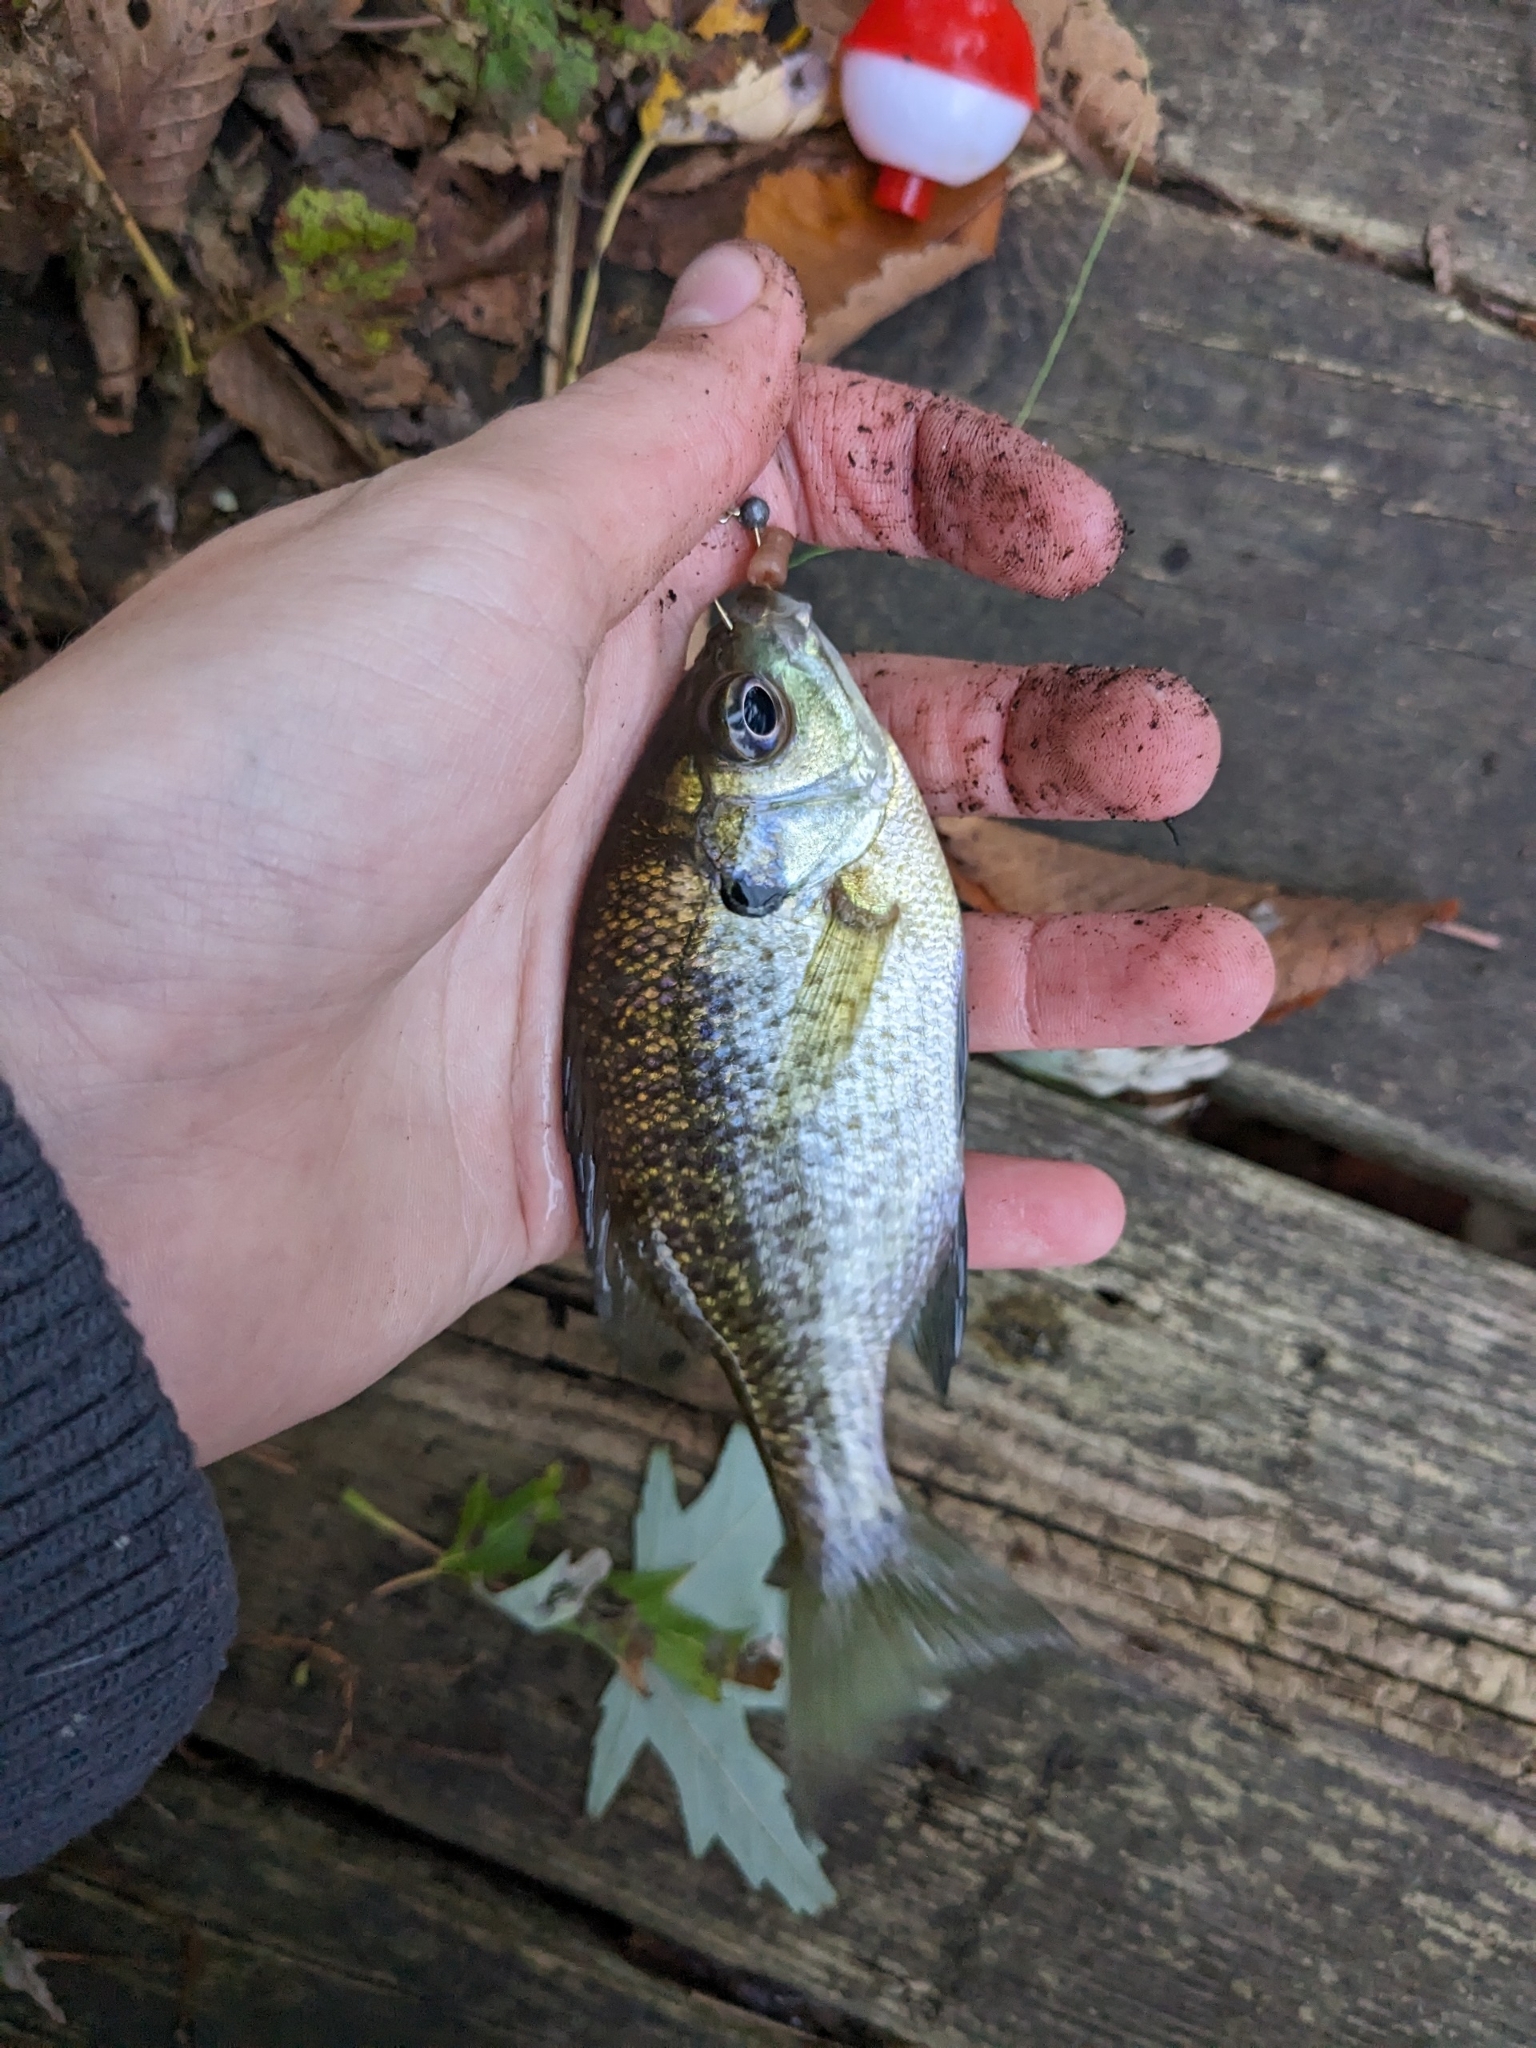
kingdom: Animalia
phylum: Chordata
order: Perciformes
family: Centrarchidae
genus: Lepomis
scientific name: Lepomis macrochirus
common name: Bluegill
